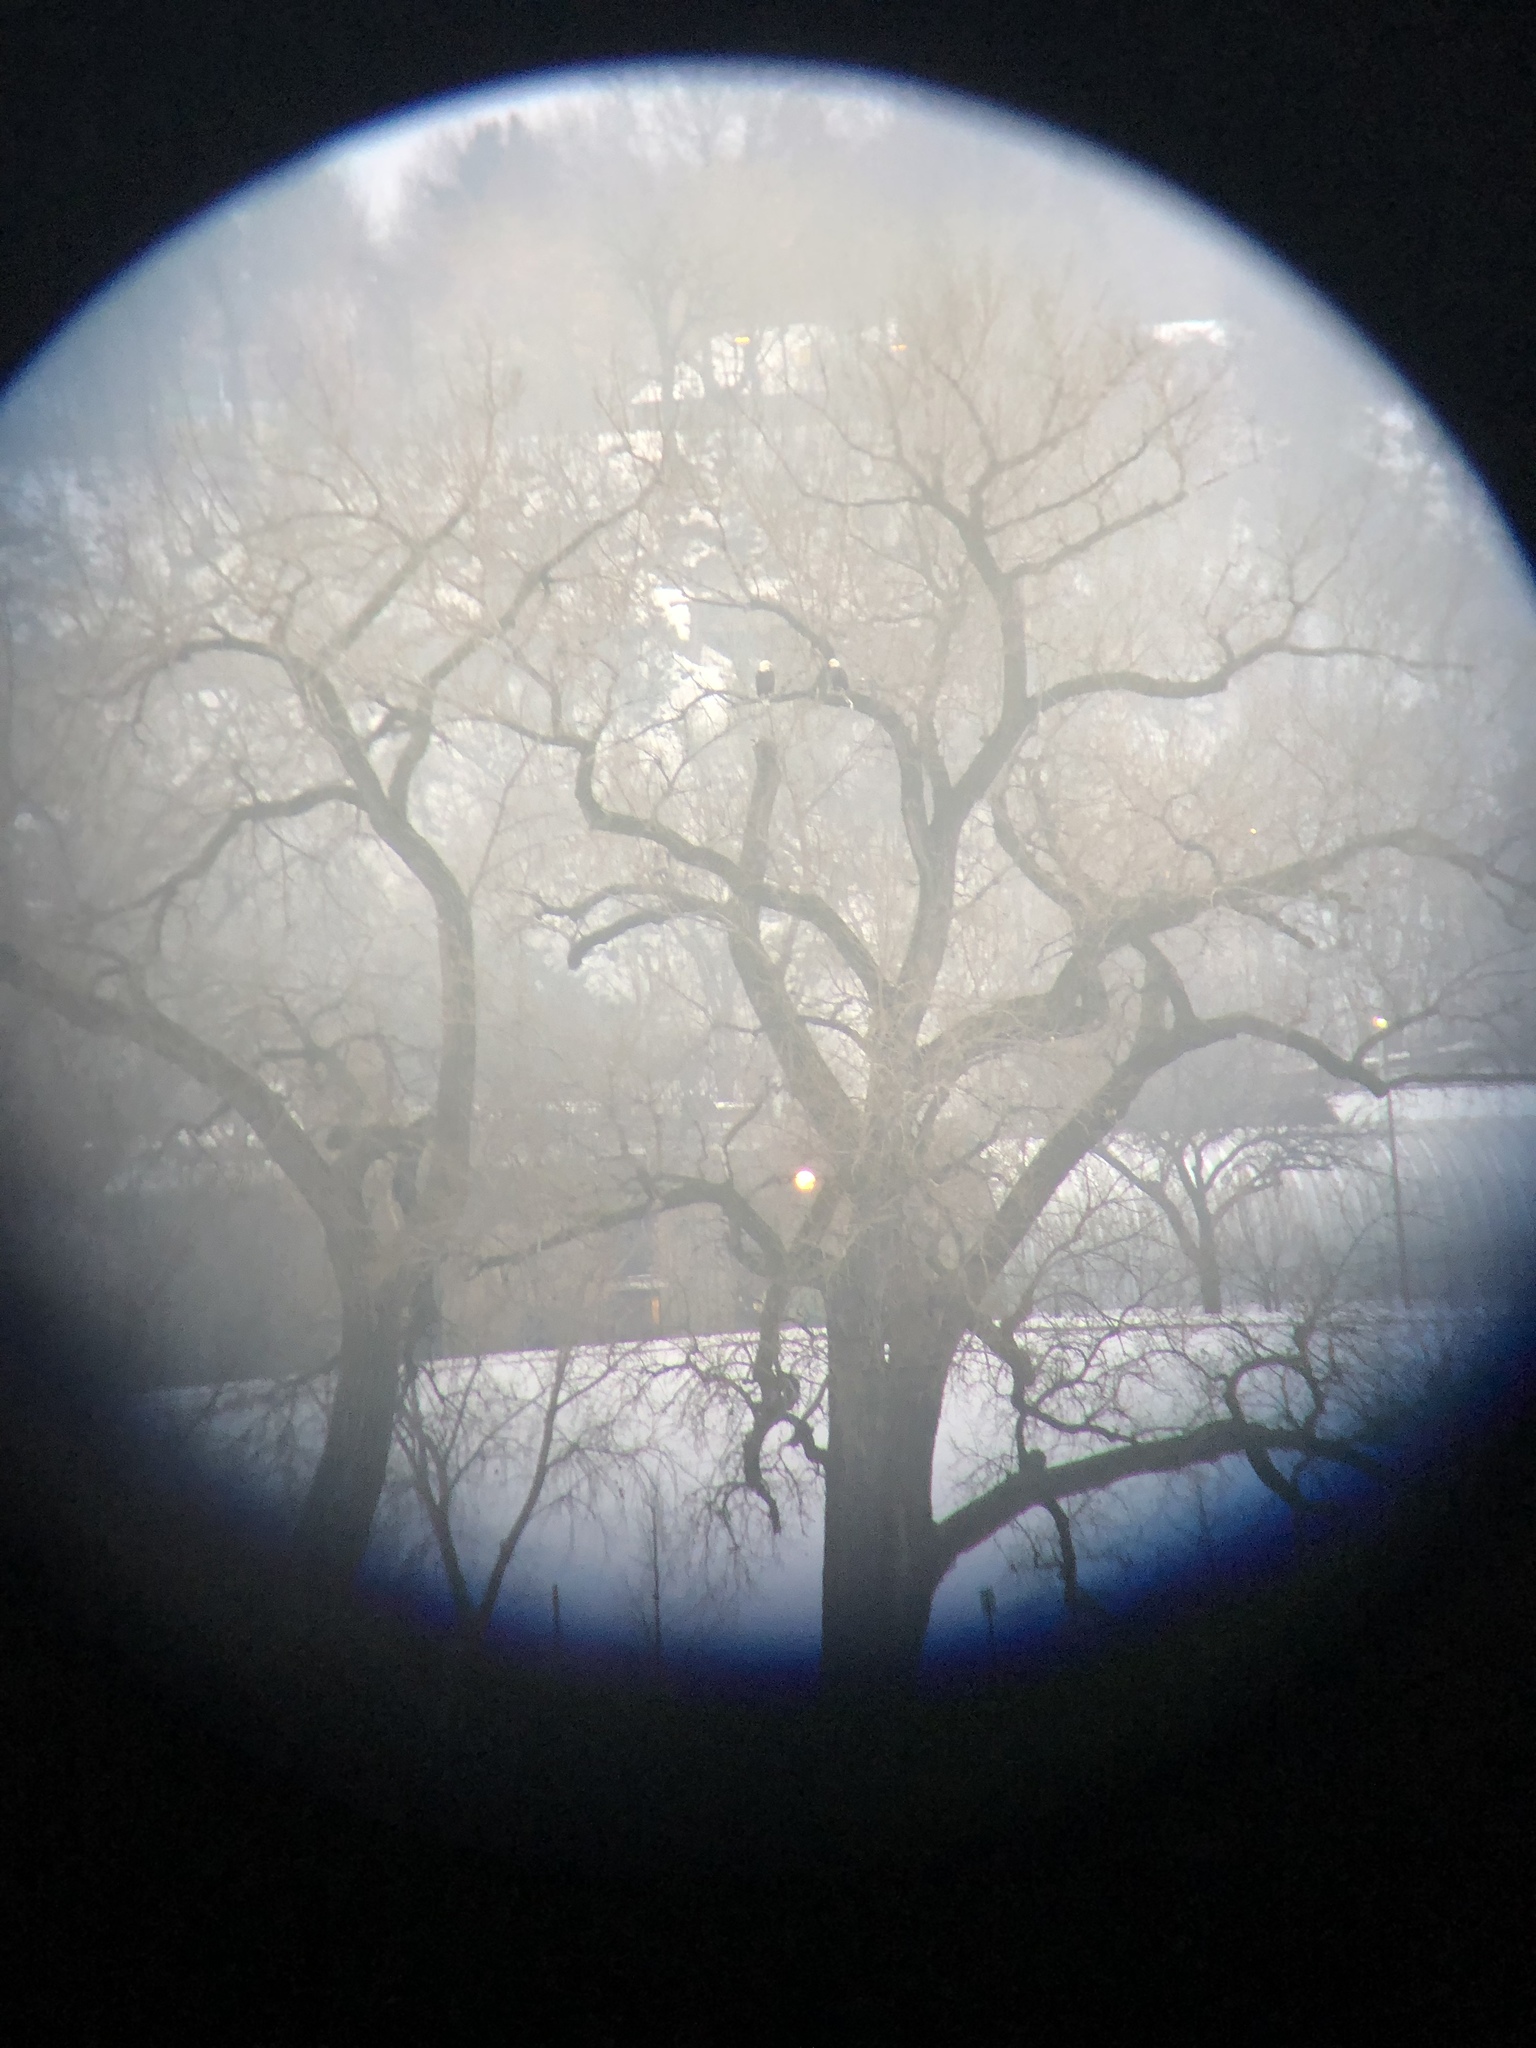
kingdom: Animalia
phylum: Chordata
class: Aves
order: Accipitriformes
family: Accipitridae
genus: Haliaeetus
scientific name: Haliaeetus leucocephalus
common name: Bald eagle
